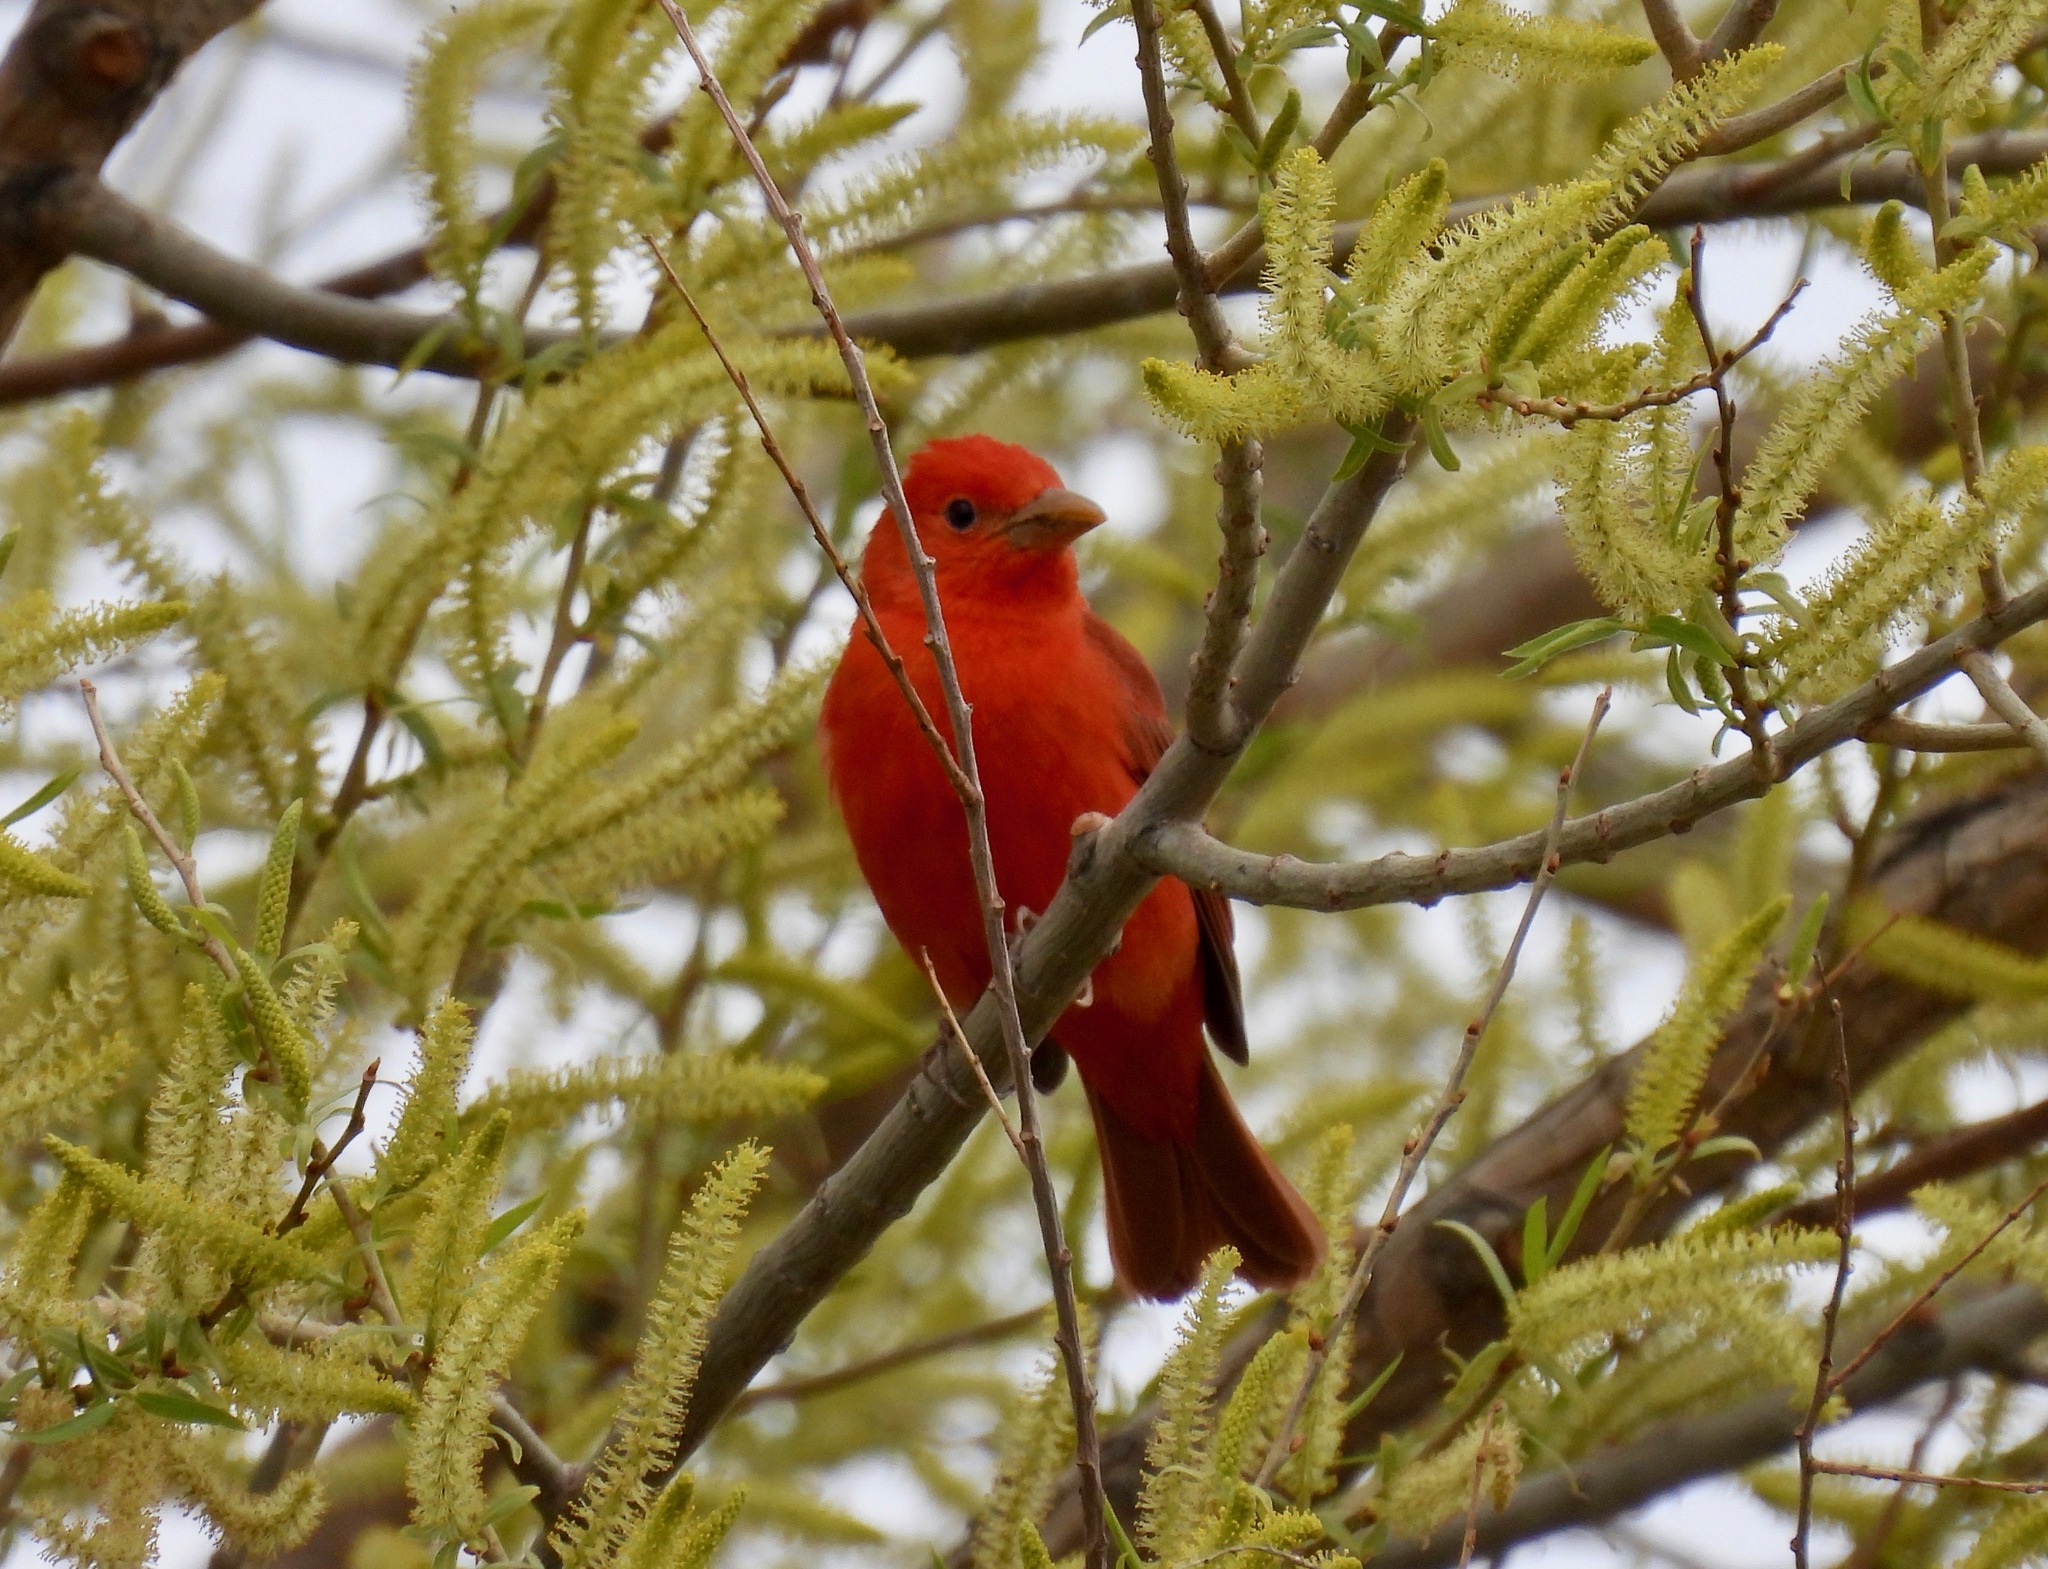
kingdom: Animalia
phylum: Chordata
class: Aves
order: Passeriformes
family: Cardinalidae
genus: Piranga
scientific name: Piranga rubra
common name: Summer tanager
